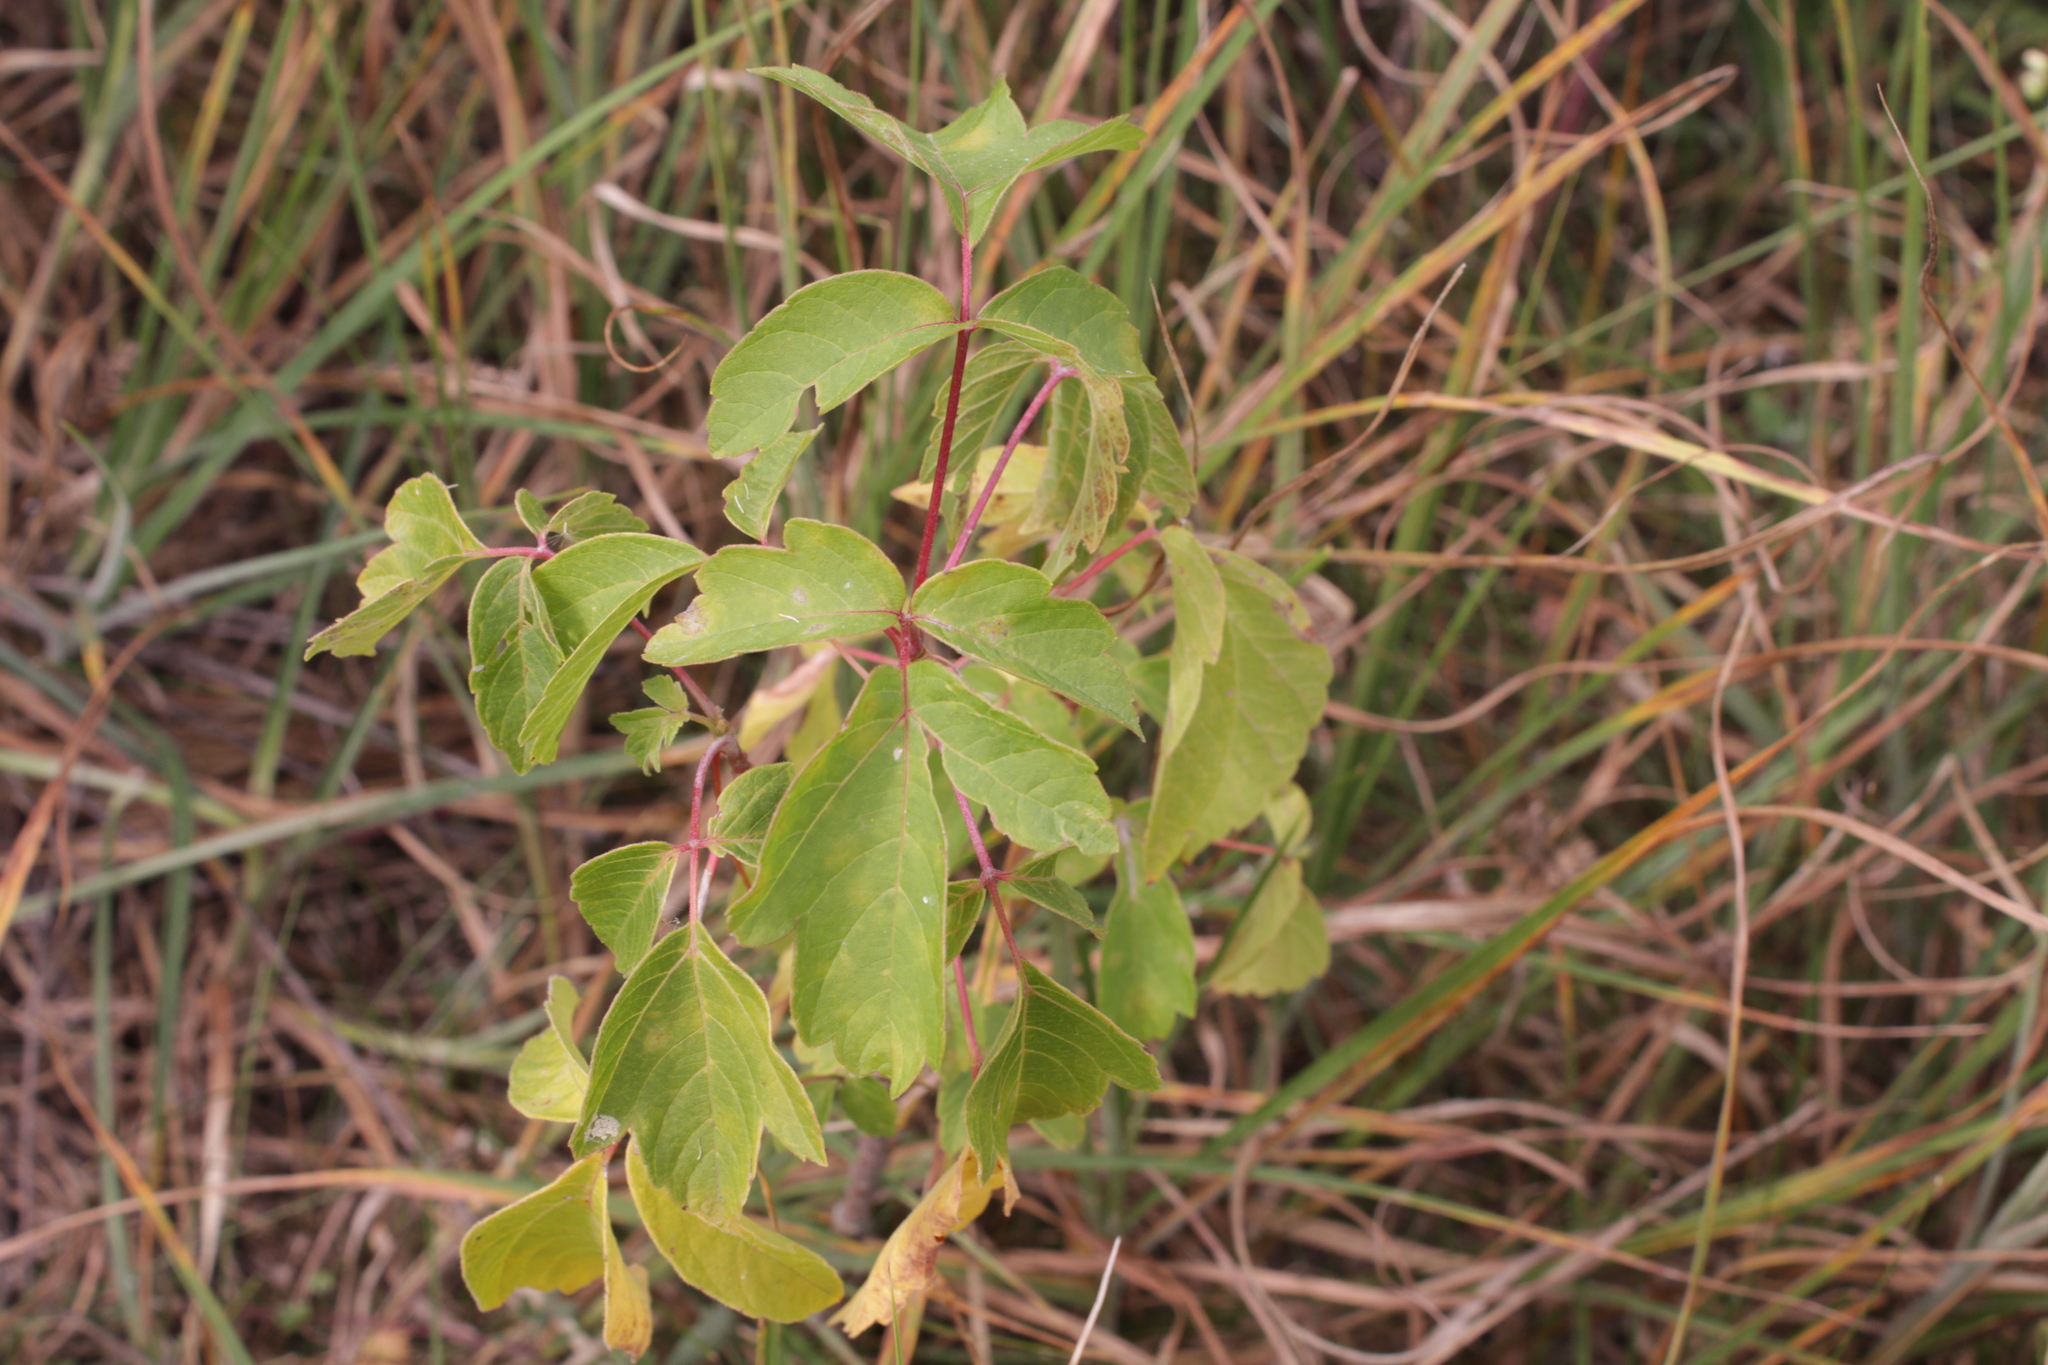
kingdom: Plantae
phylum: Tracheophyta
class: Magnoliopsida
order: Sapindales
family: Sapindaceae
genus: Acer
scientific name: Acer negundo
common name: Ashleaf maple
